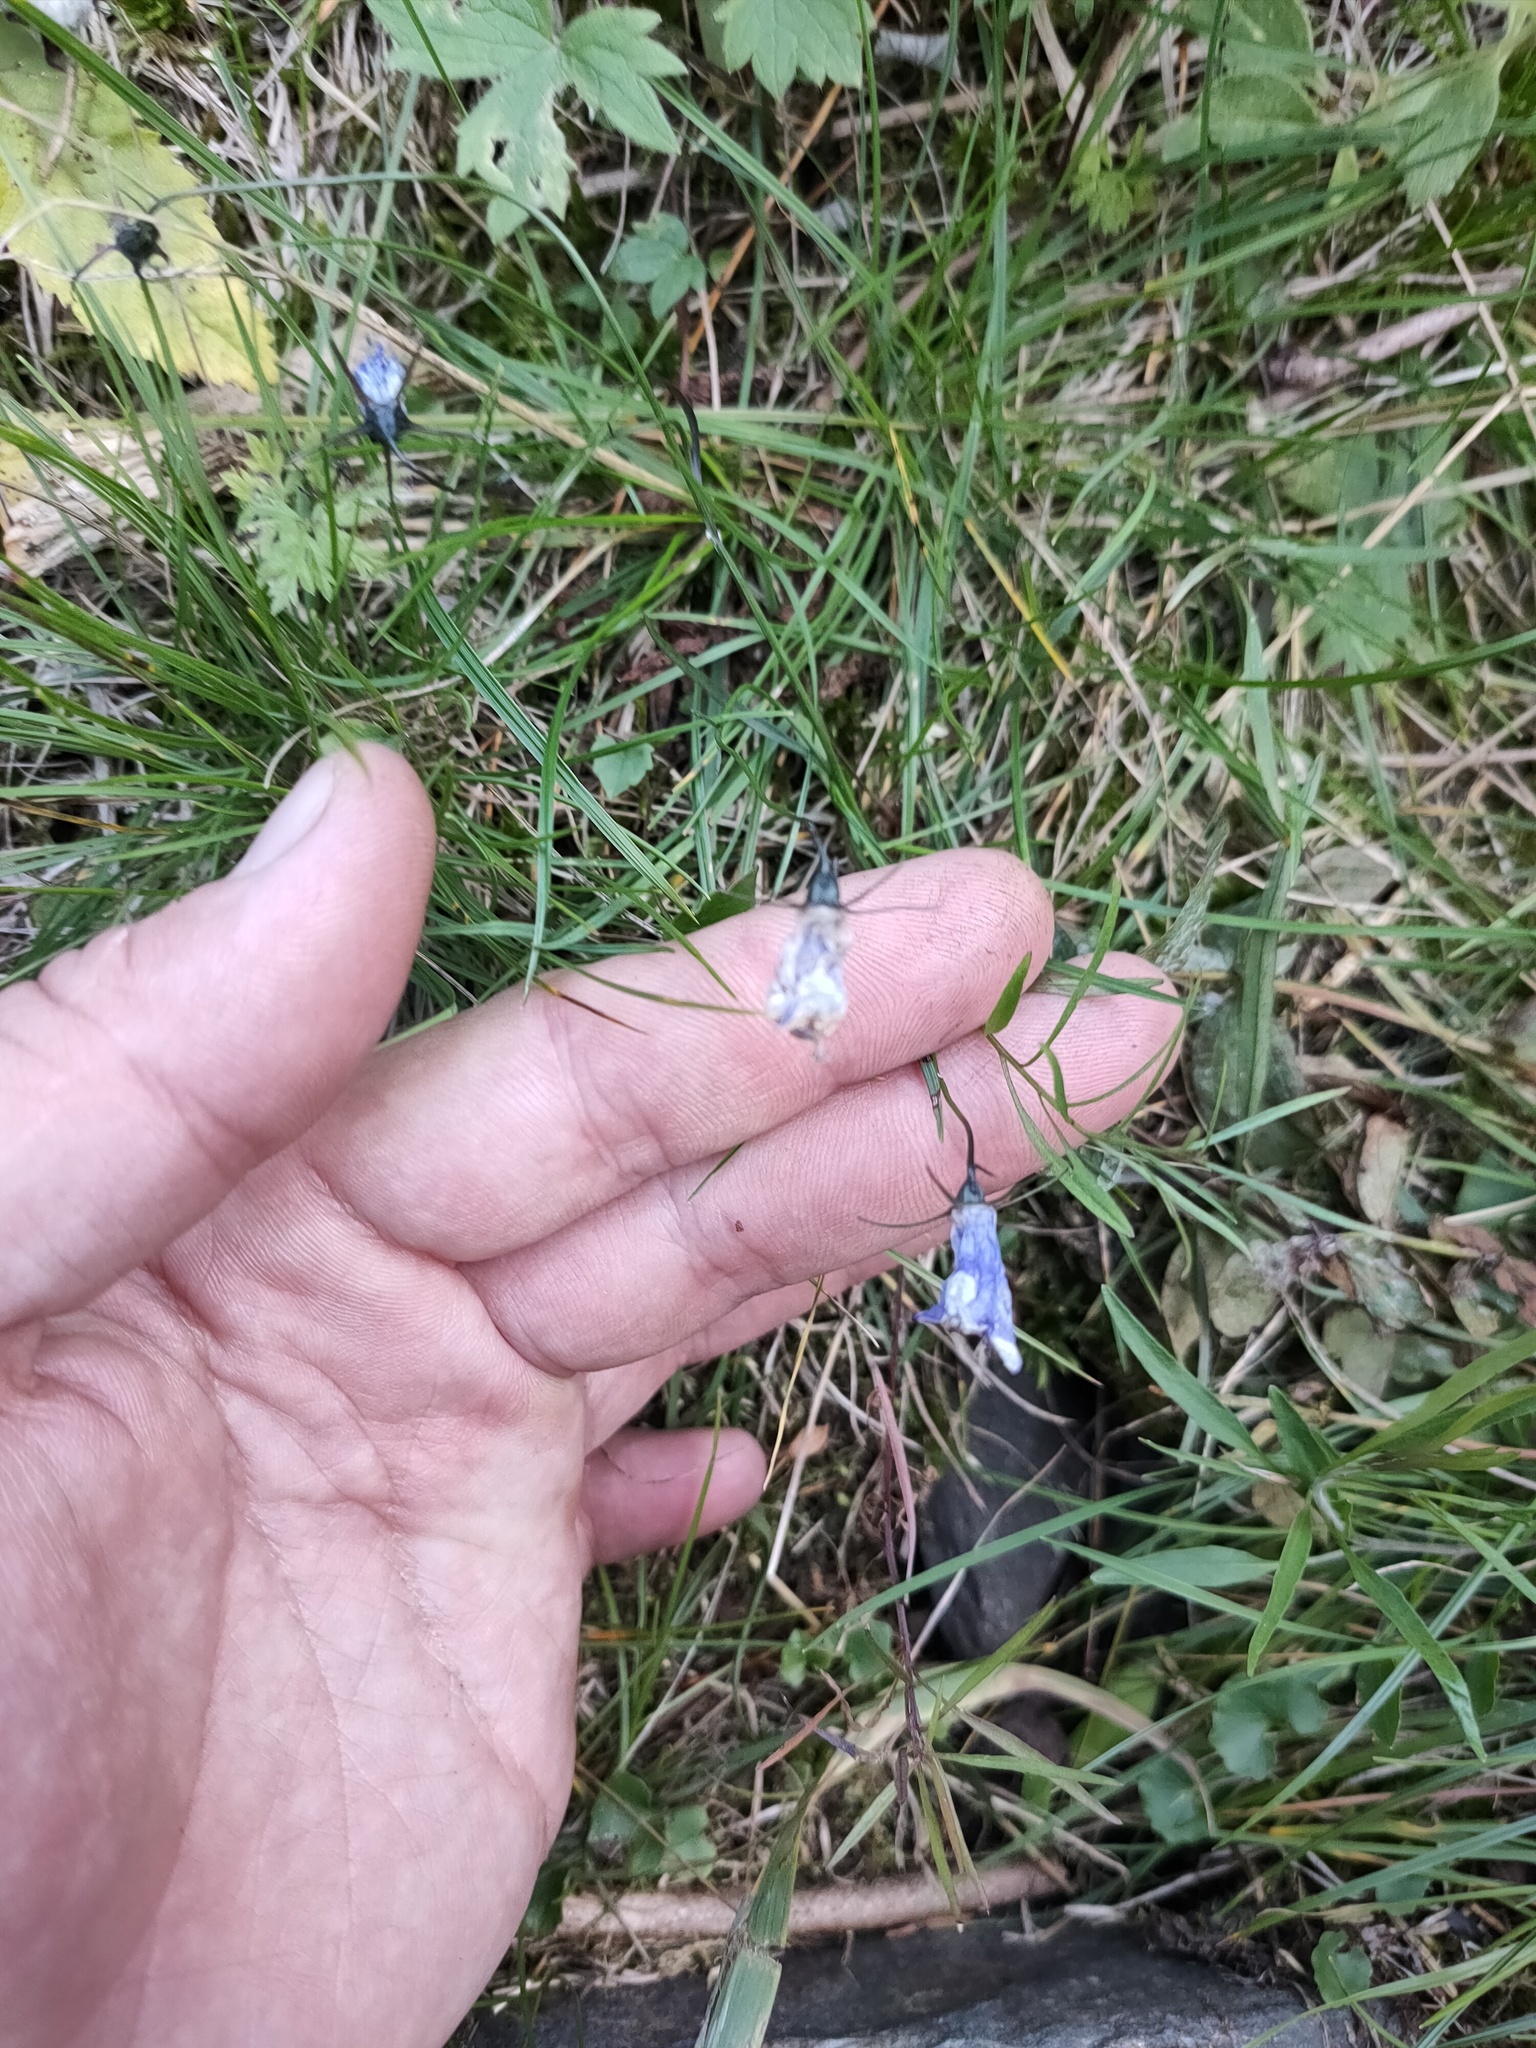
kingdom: Plantae
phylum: Tracheophyta
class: Magnoliopsida
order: Asterales
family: Campanulaceae
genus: Campanula
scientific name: Campanula rotundifolia
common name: Harebell
